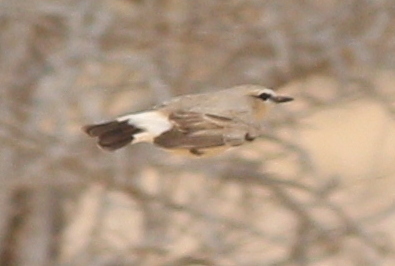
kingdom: Animalia
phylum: Chordata
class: Aves
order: Passeriformes
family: Muscicapidae
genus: Oenanthe
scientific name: Oenanthe isabellina
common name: Isabelline wheatear
